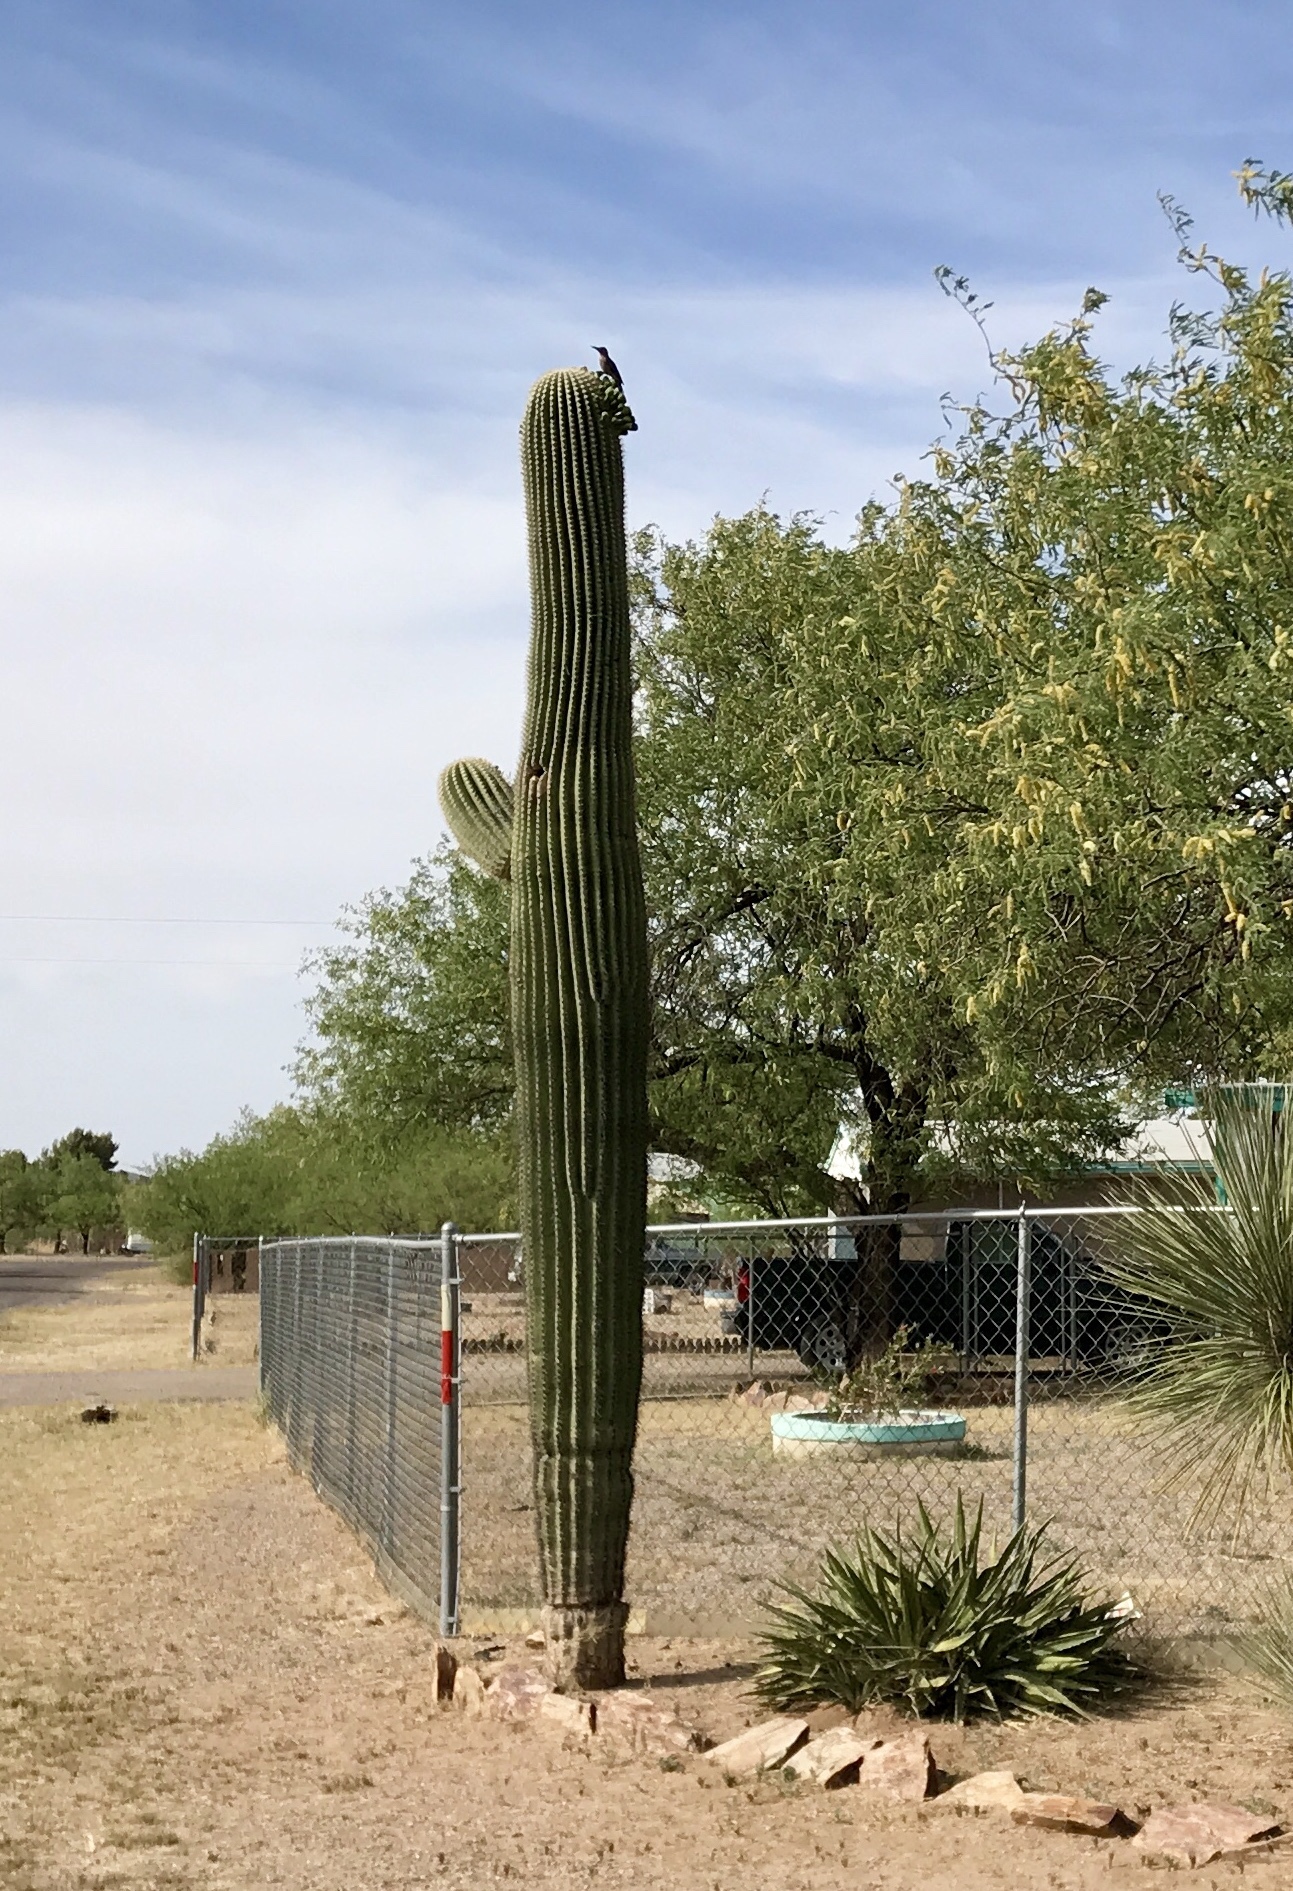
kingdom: Plantae
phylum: Tracheophyta
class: Magnoliopsida
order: Caryophyllales
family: Cactaceae
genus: Carnegiea
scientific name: Carnegiea gigantea
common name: Saguaro
